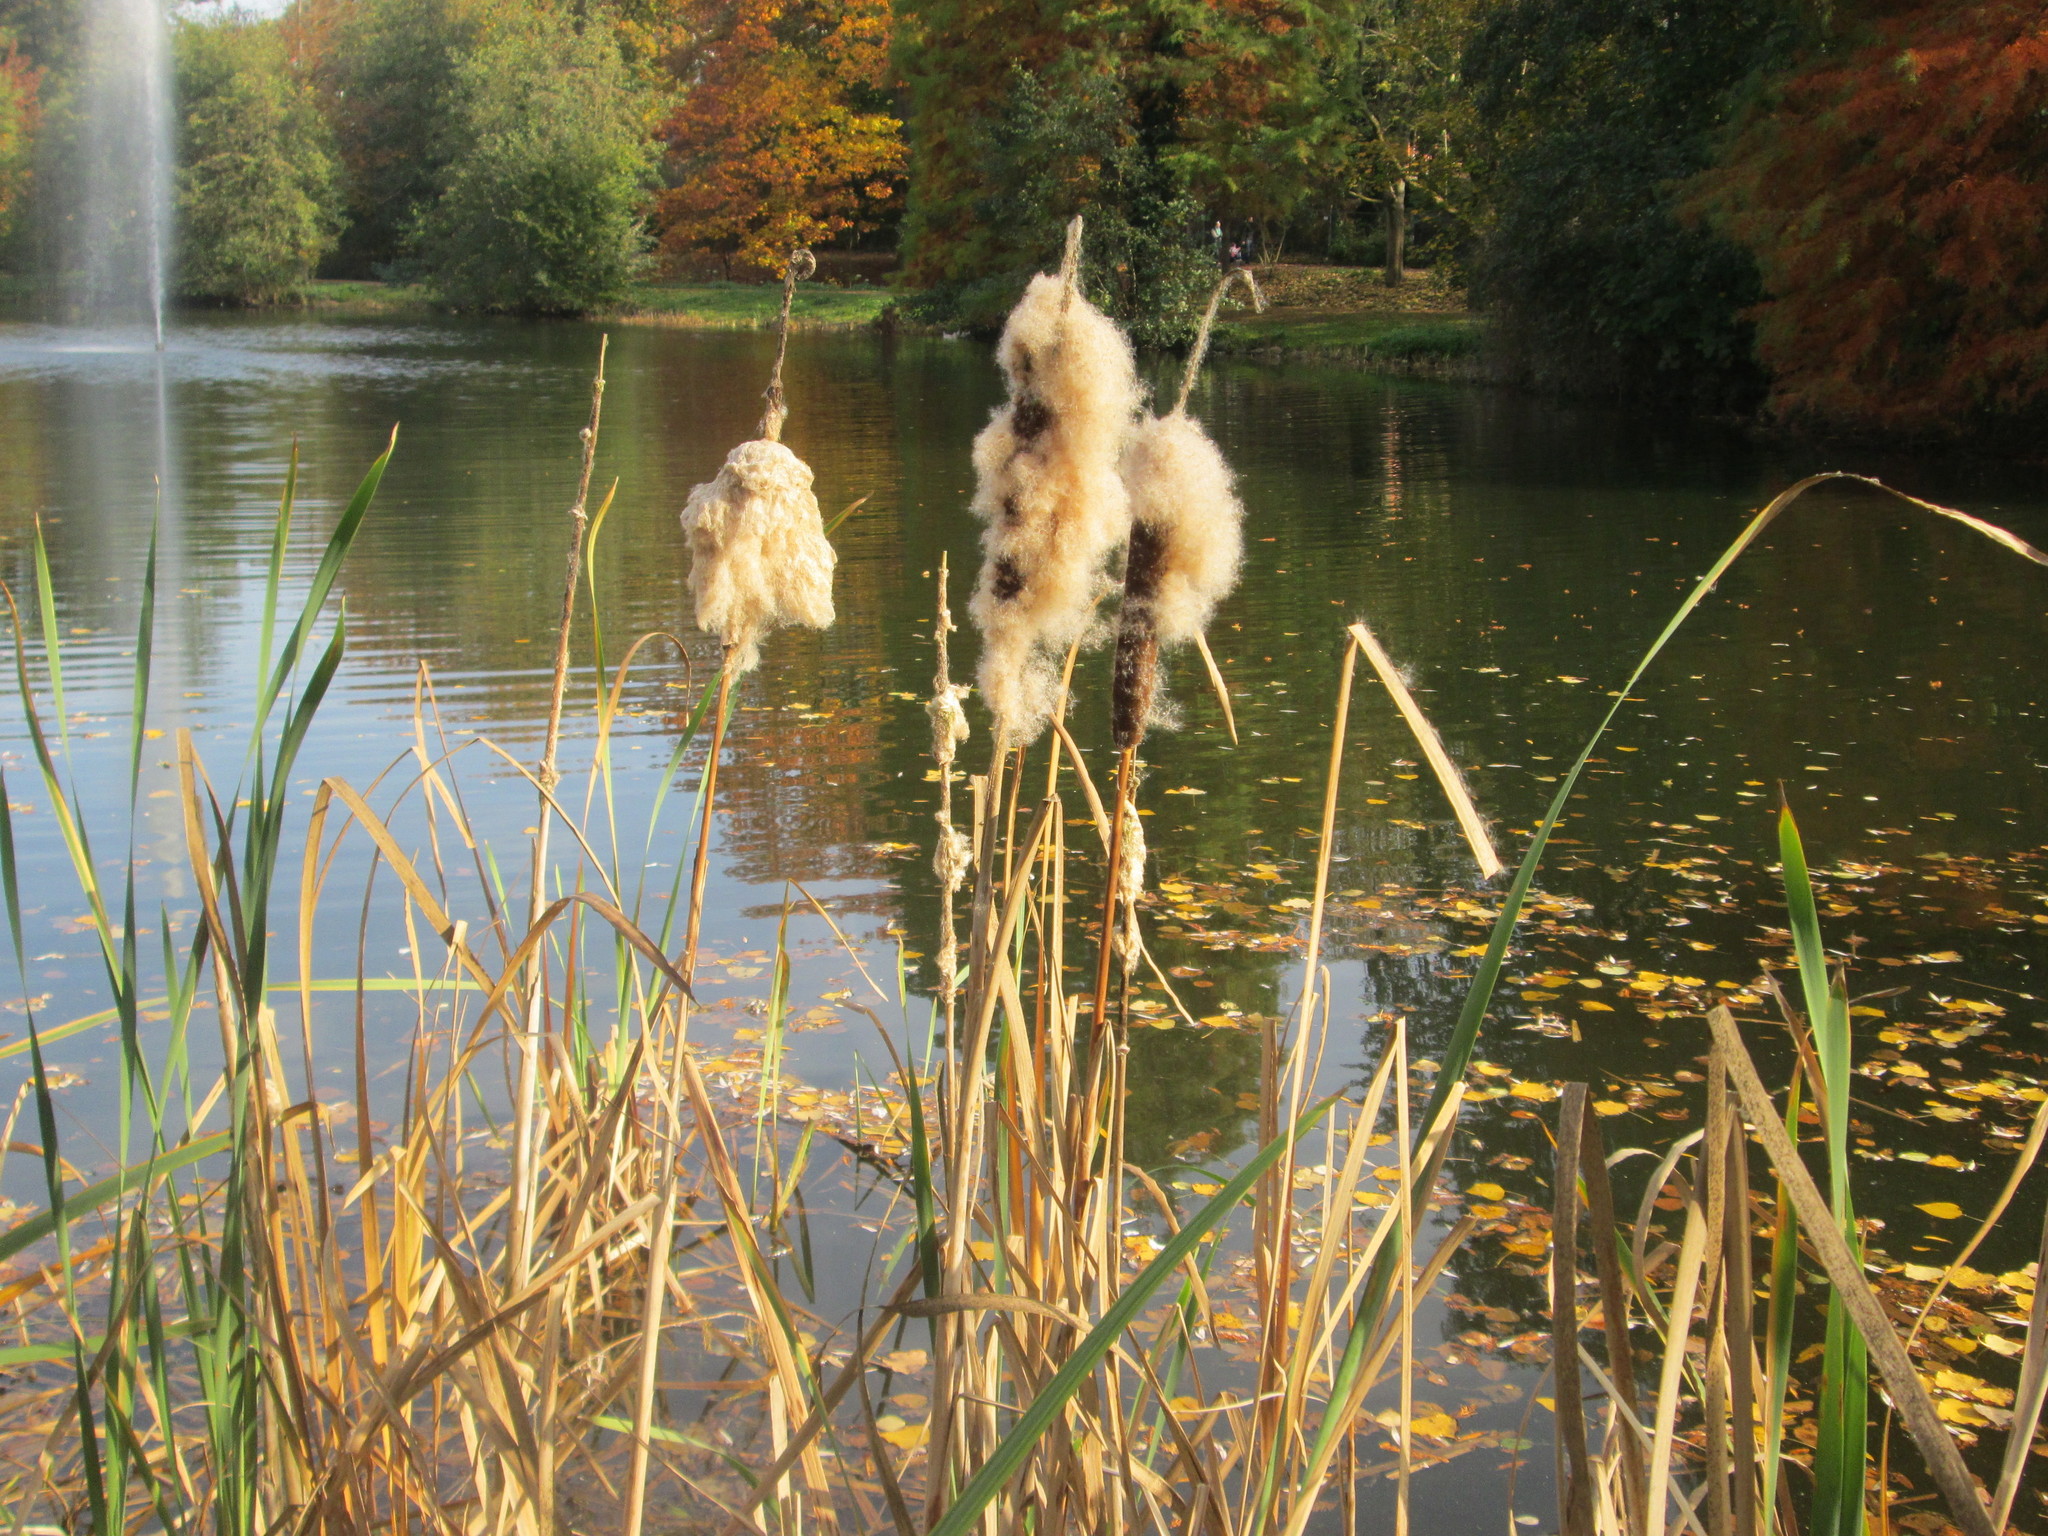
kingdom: Plantae
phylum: Tracheophyta
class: Liliopsida
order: Poales
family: Typhaceae
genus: Typha
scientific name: Typha latifolia
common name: Broadleaf cattail
